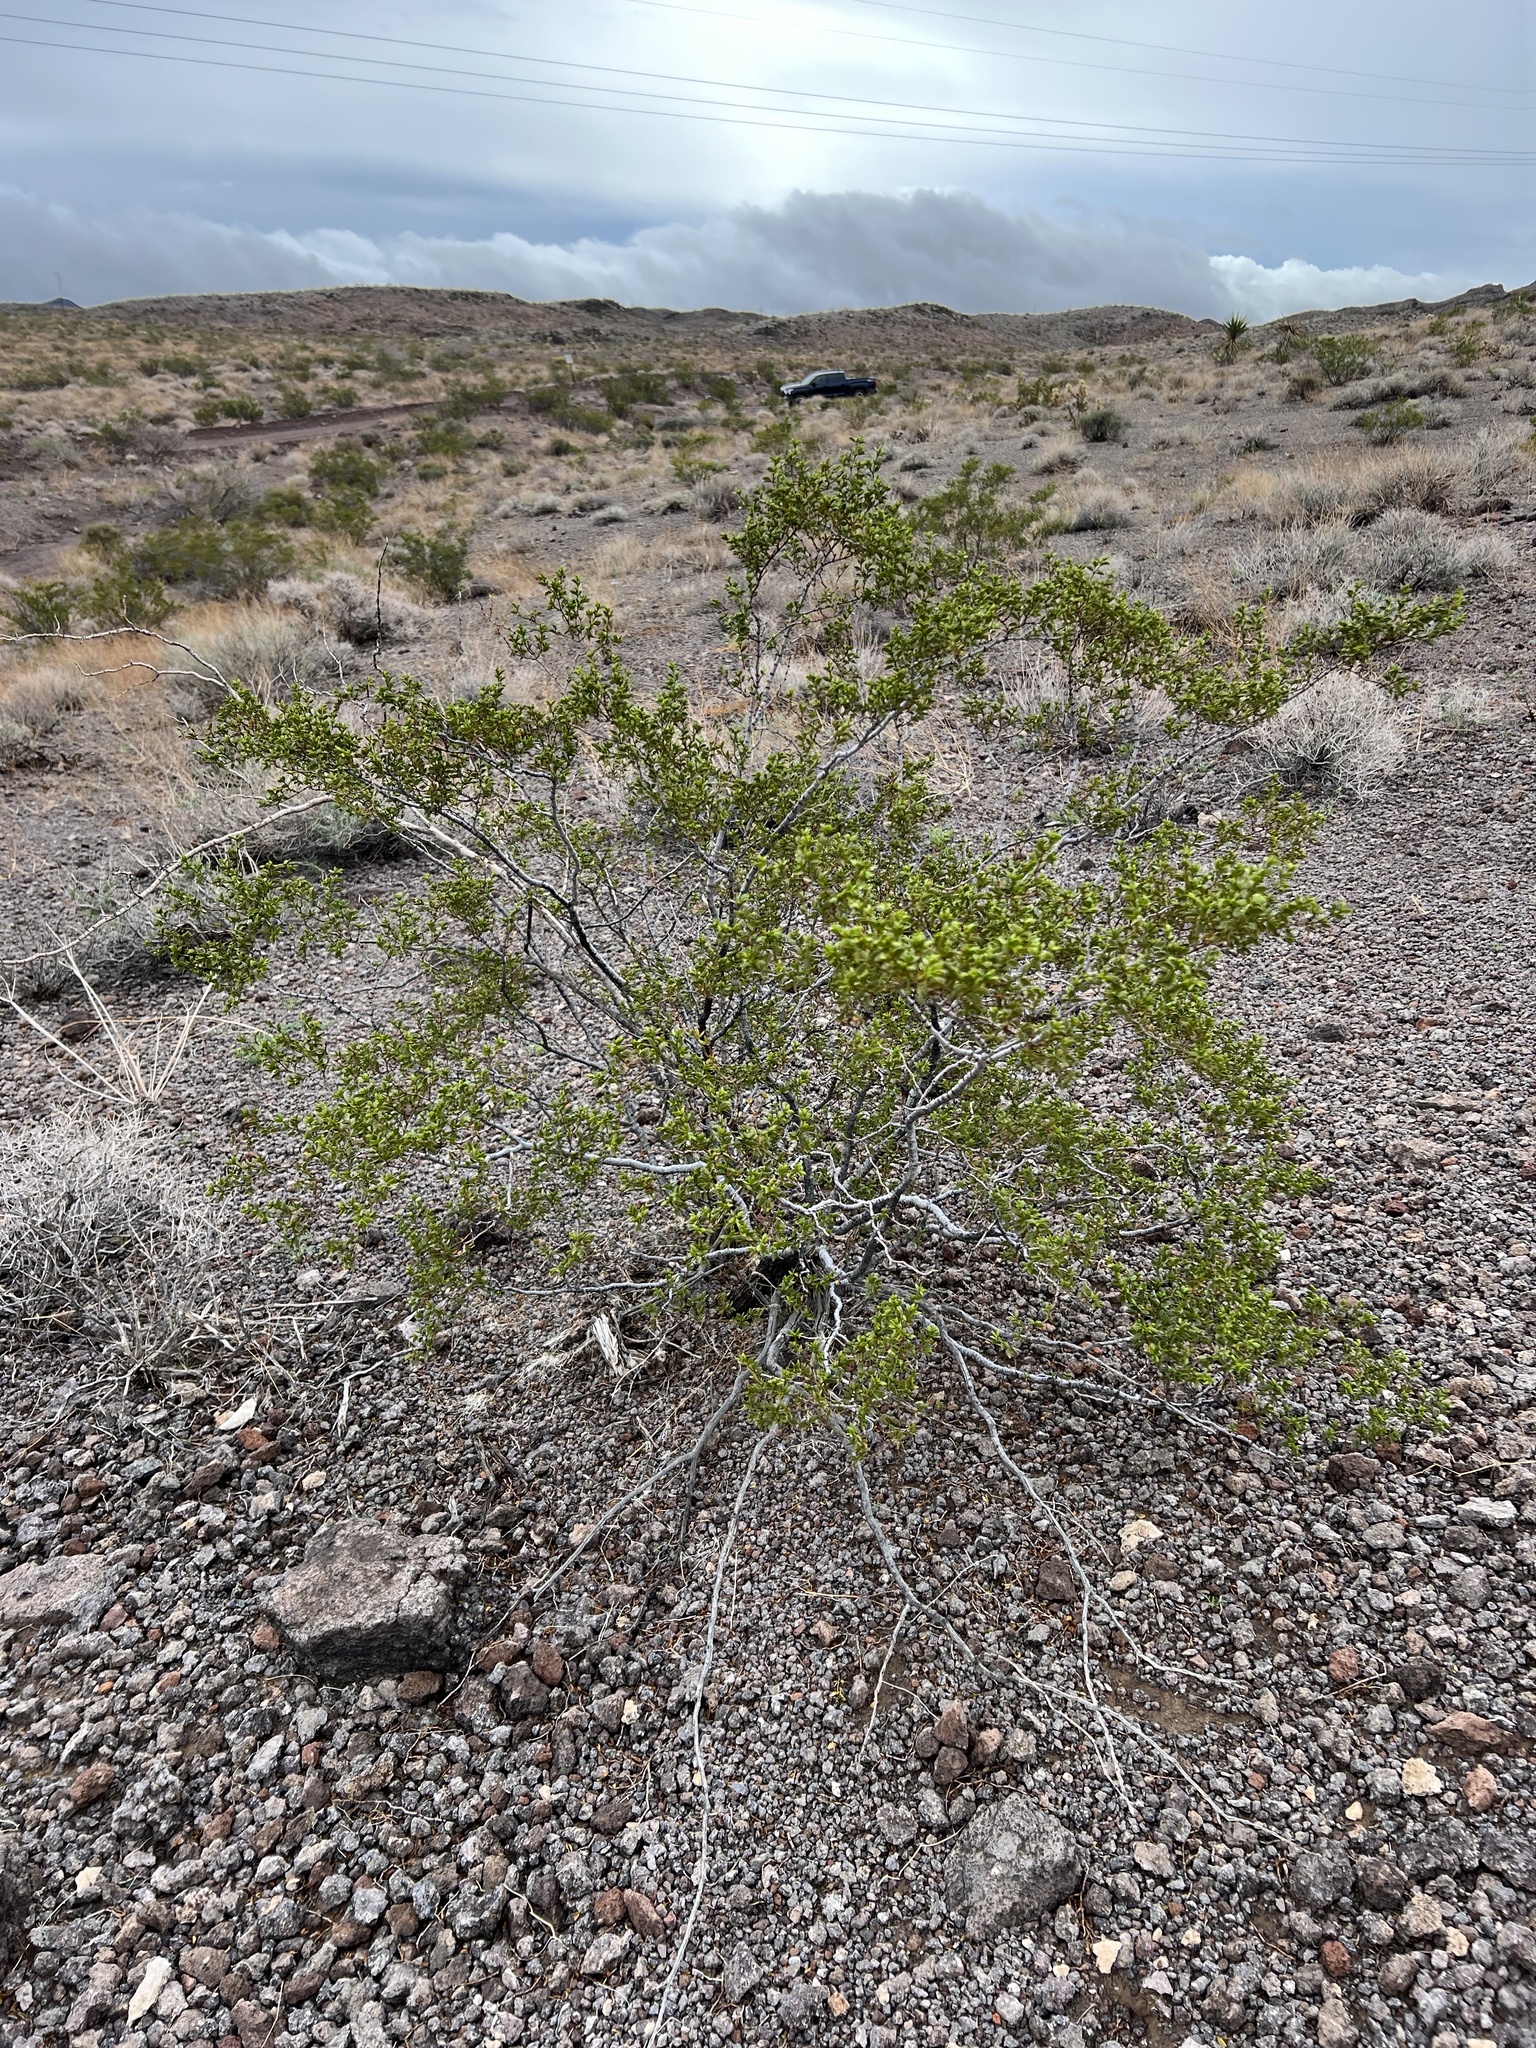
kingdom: Plantae
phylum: Tracheophyta
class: Magnoliopsida
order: Zygophyllales
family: Zygophyllaceae
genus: Larrea
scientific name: Larrea tridentata
